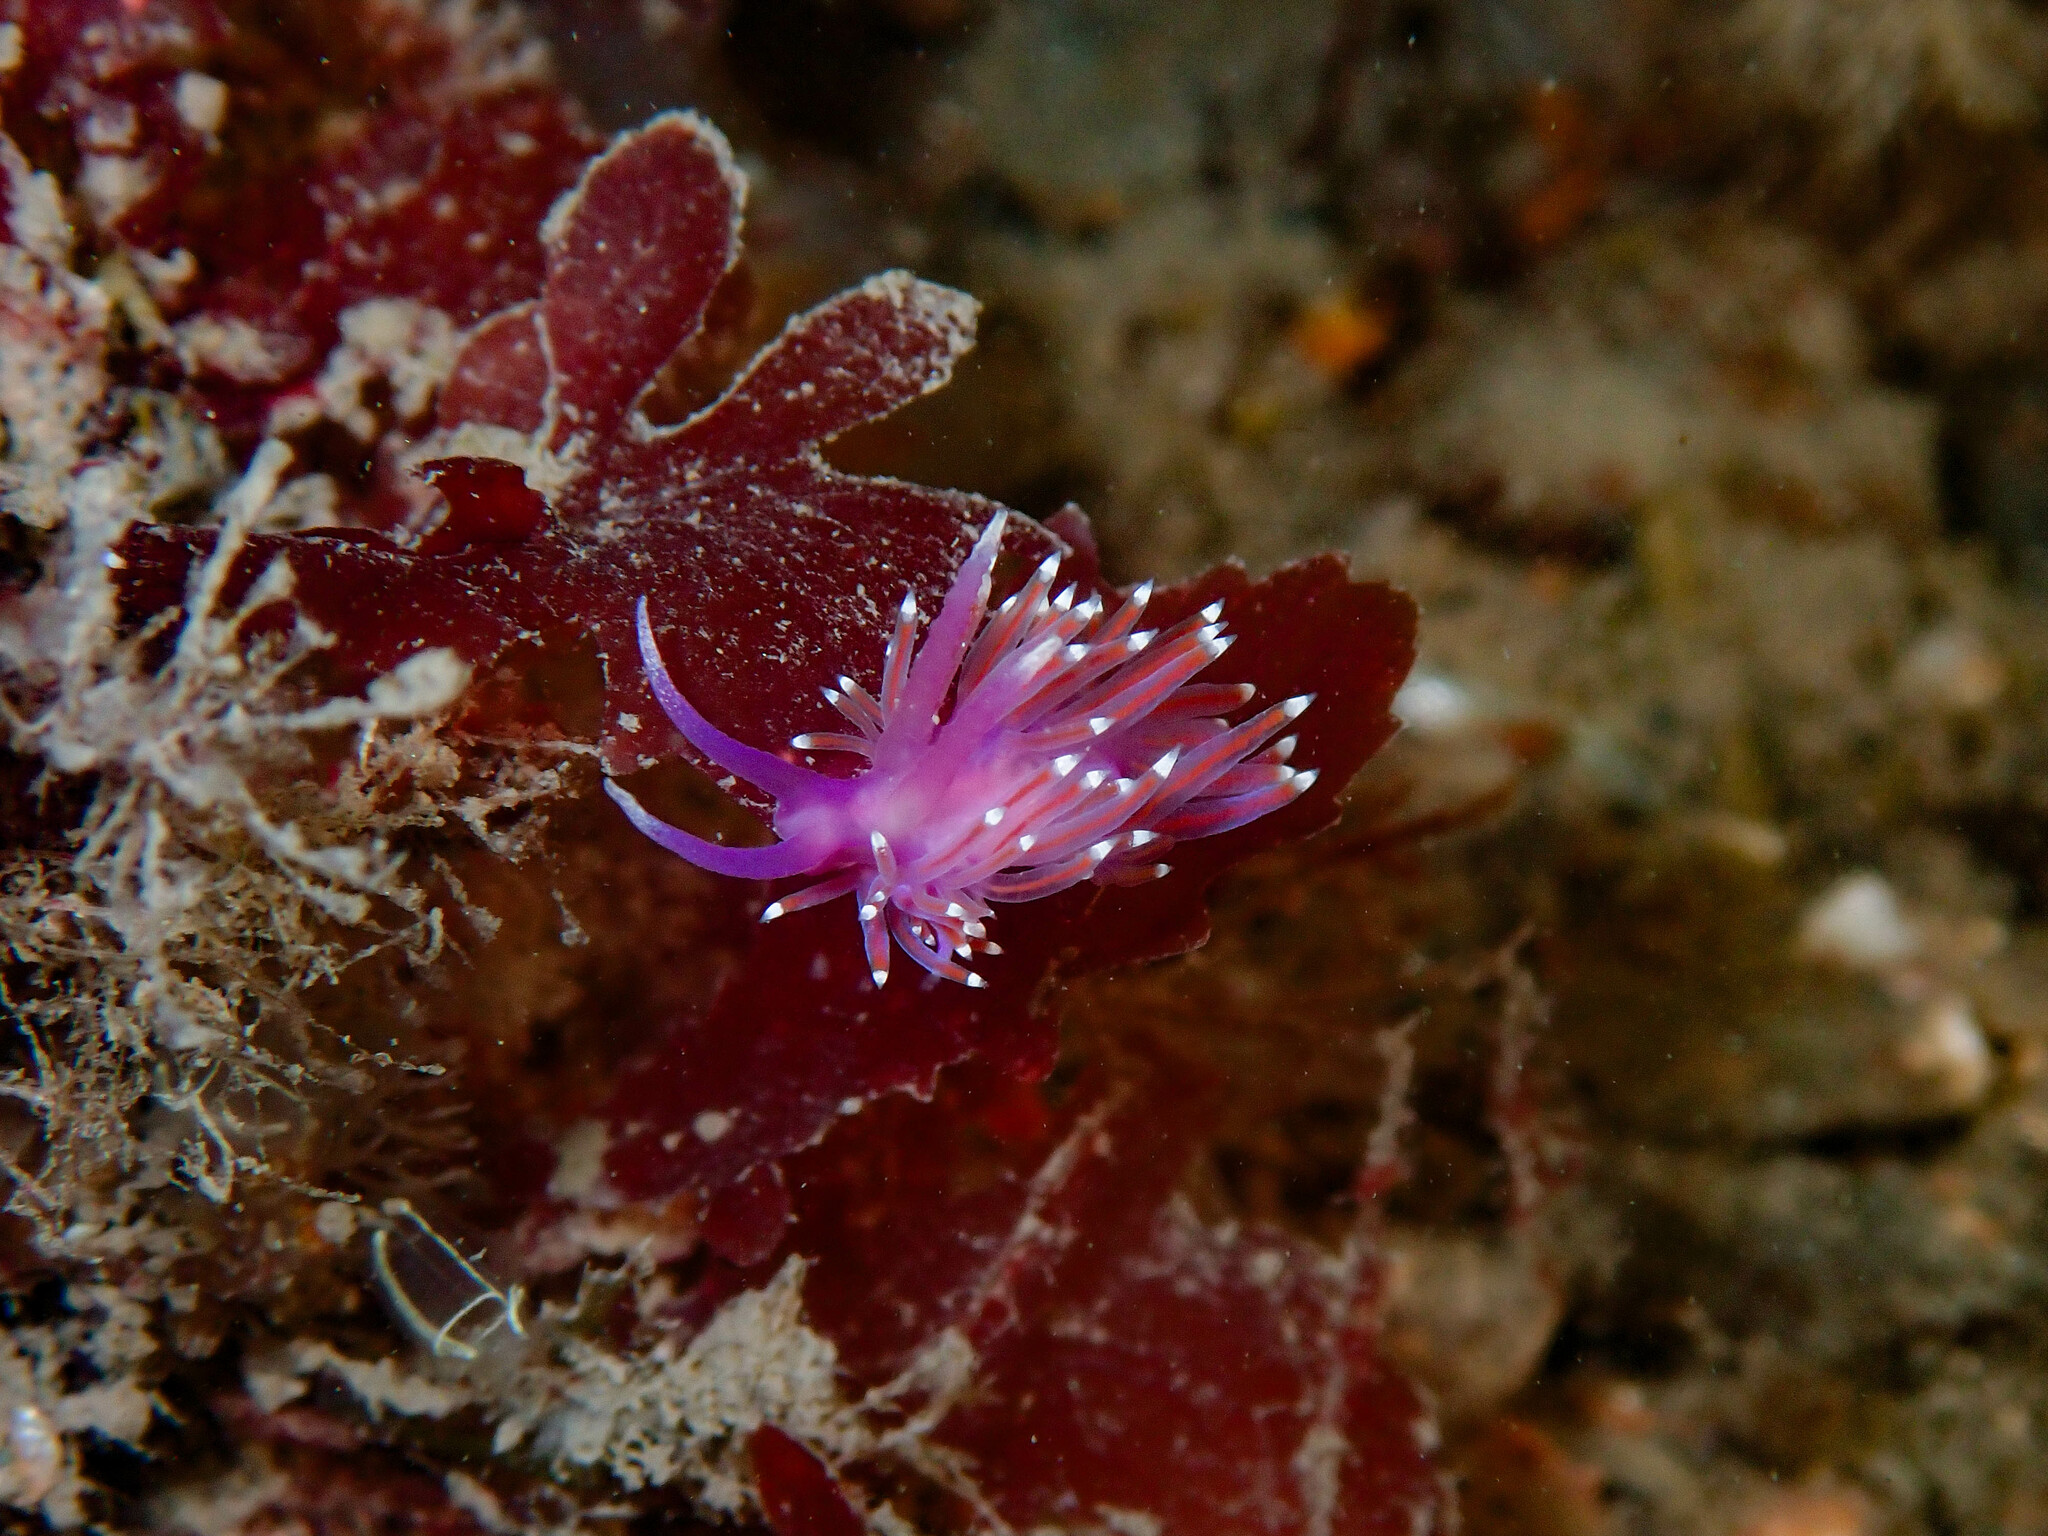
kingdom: Animalia
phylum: Mollusca
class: Gastropoda
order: Nudibranchia
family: Flabellinidae
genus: Edmundsella
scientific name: Edmundsella pedata
